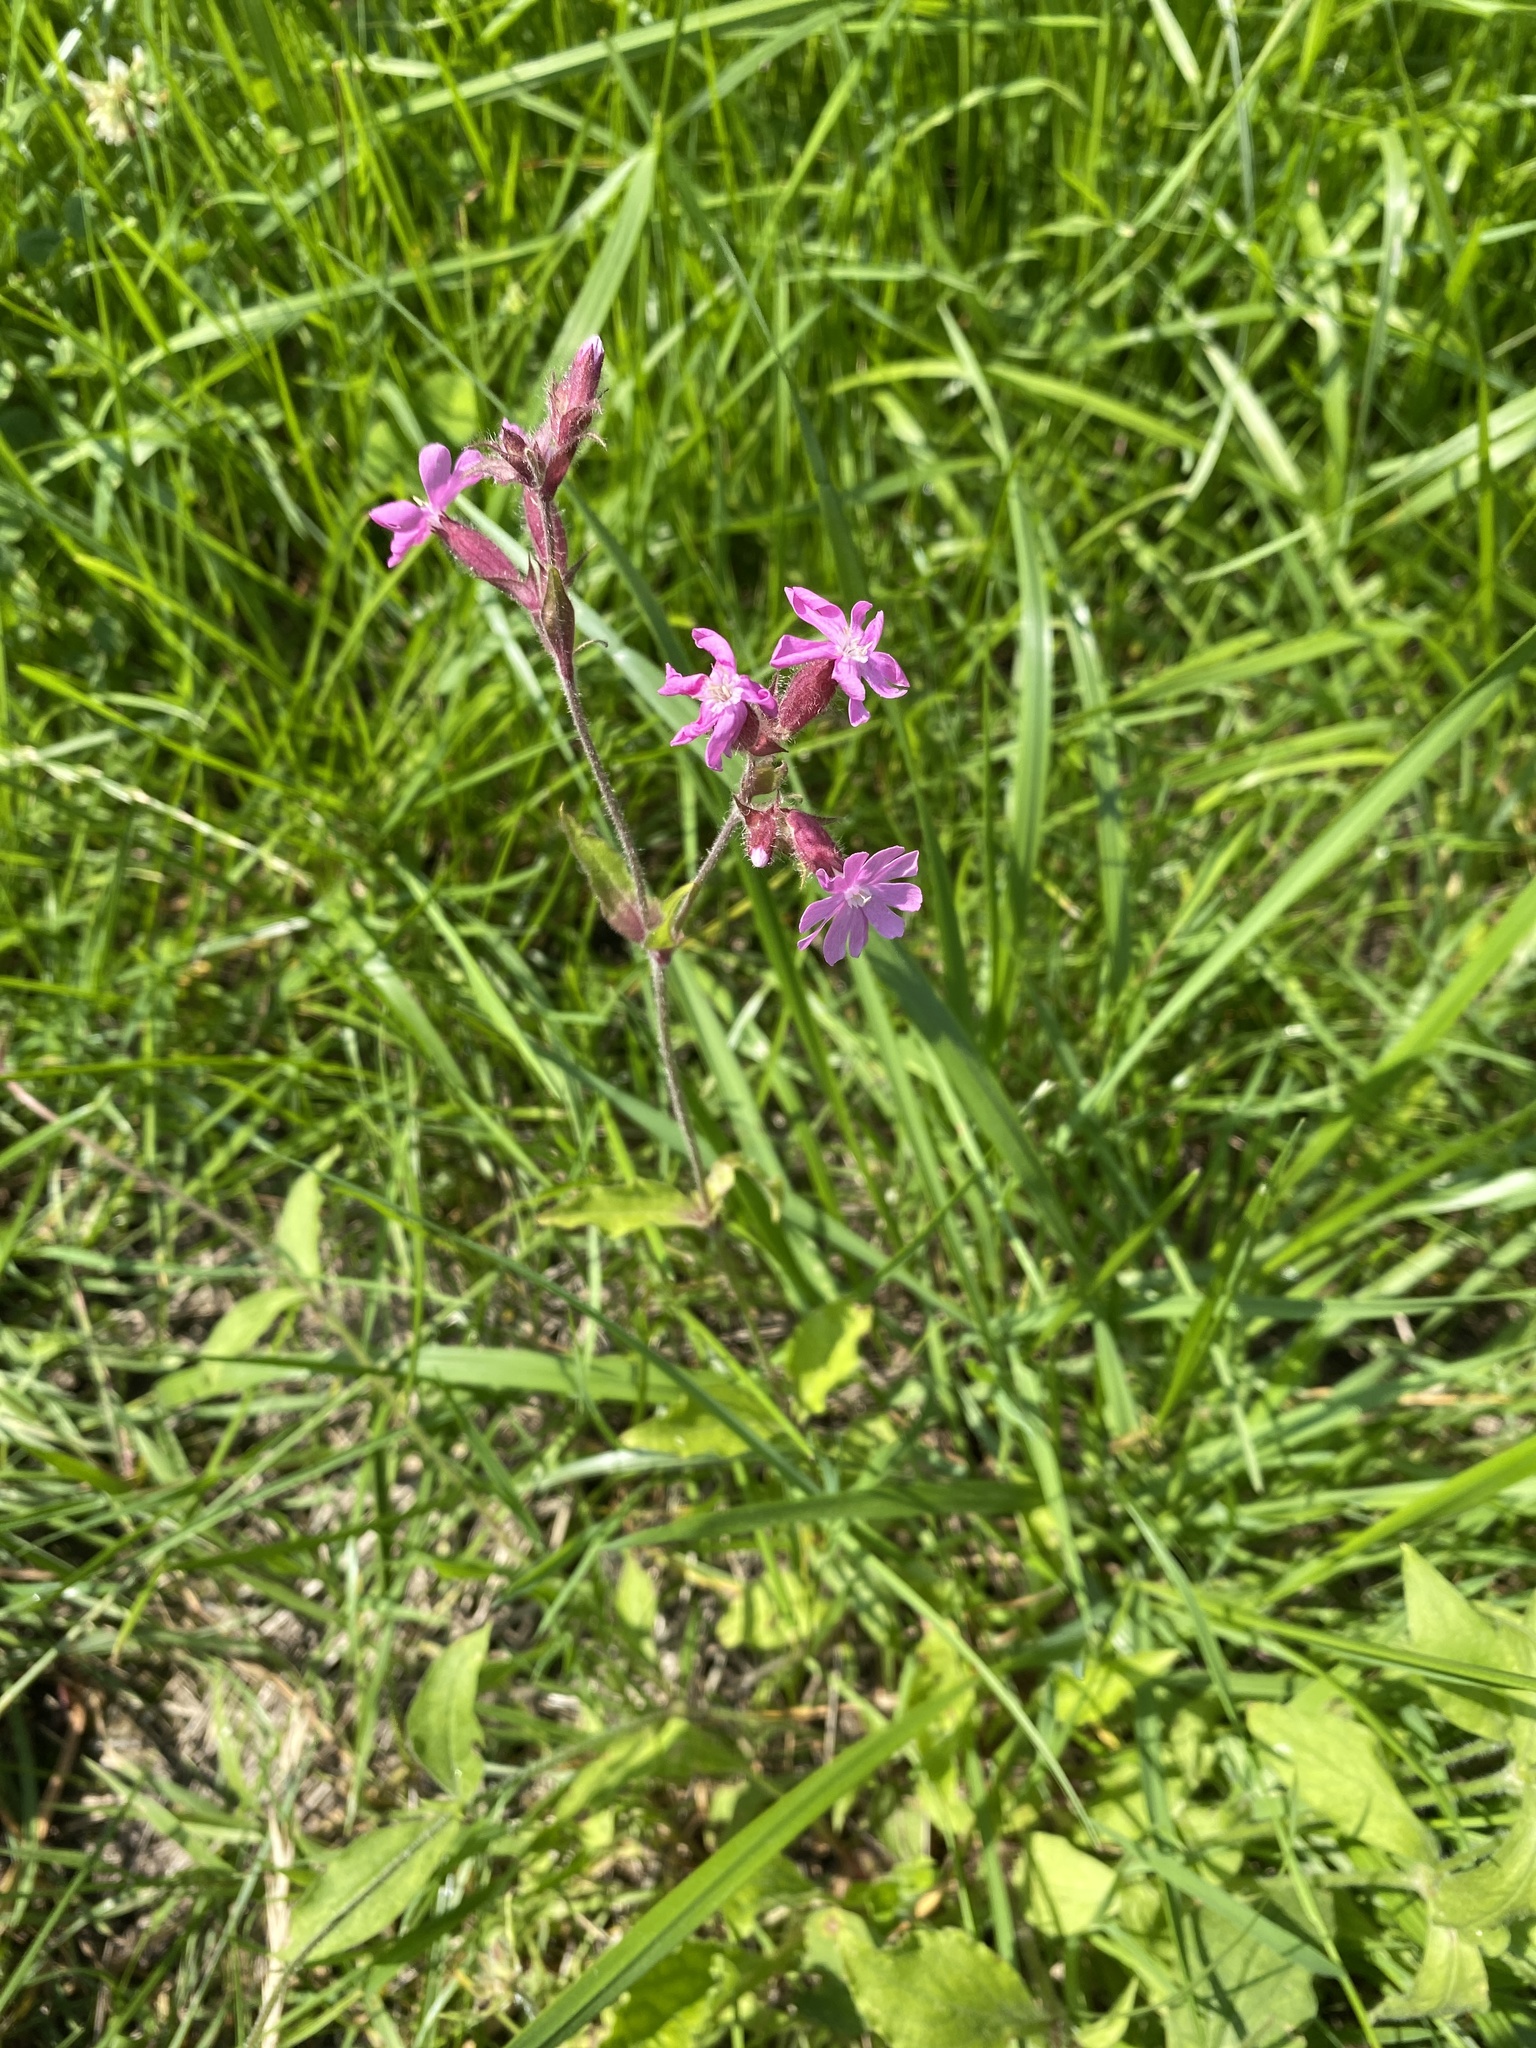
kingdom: Plantae
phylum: Tracheophyta
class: Magnoliopsida
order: Caryophyllales
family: Caryophyllaceae
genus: Silene
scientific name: Silene dioica
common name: Red campion
